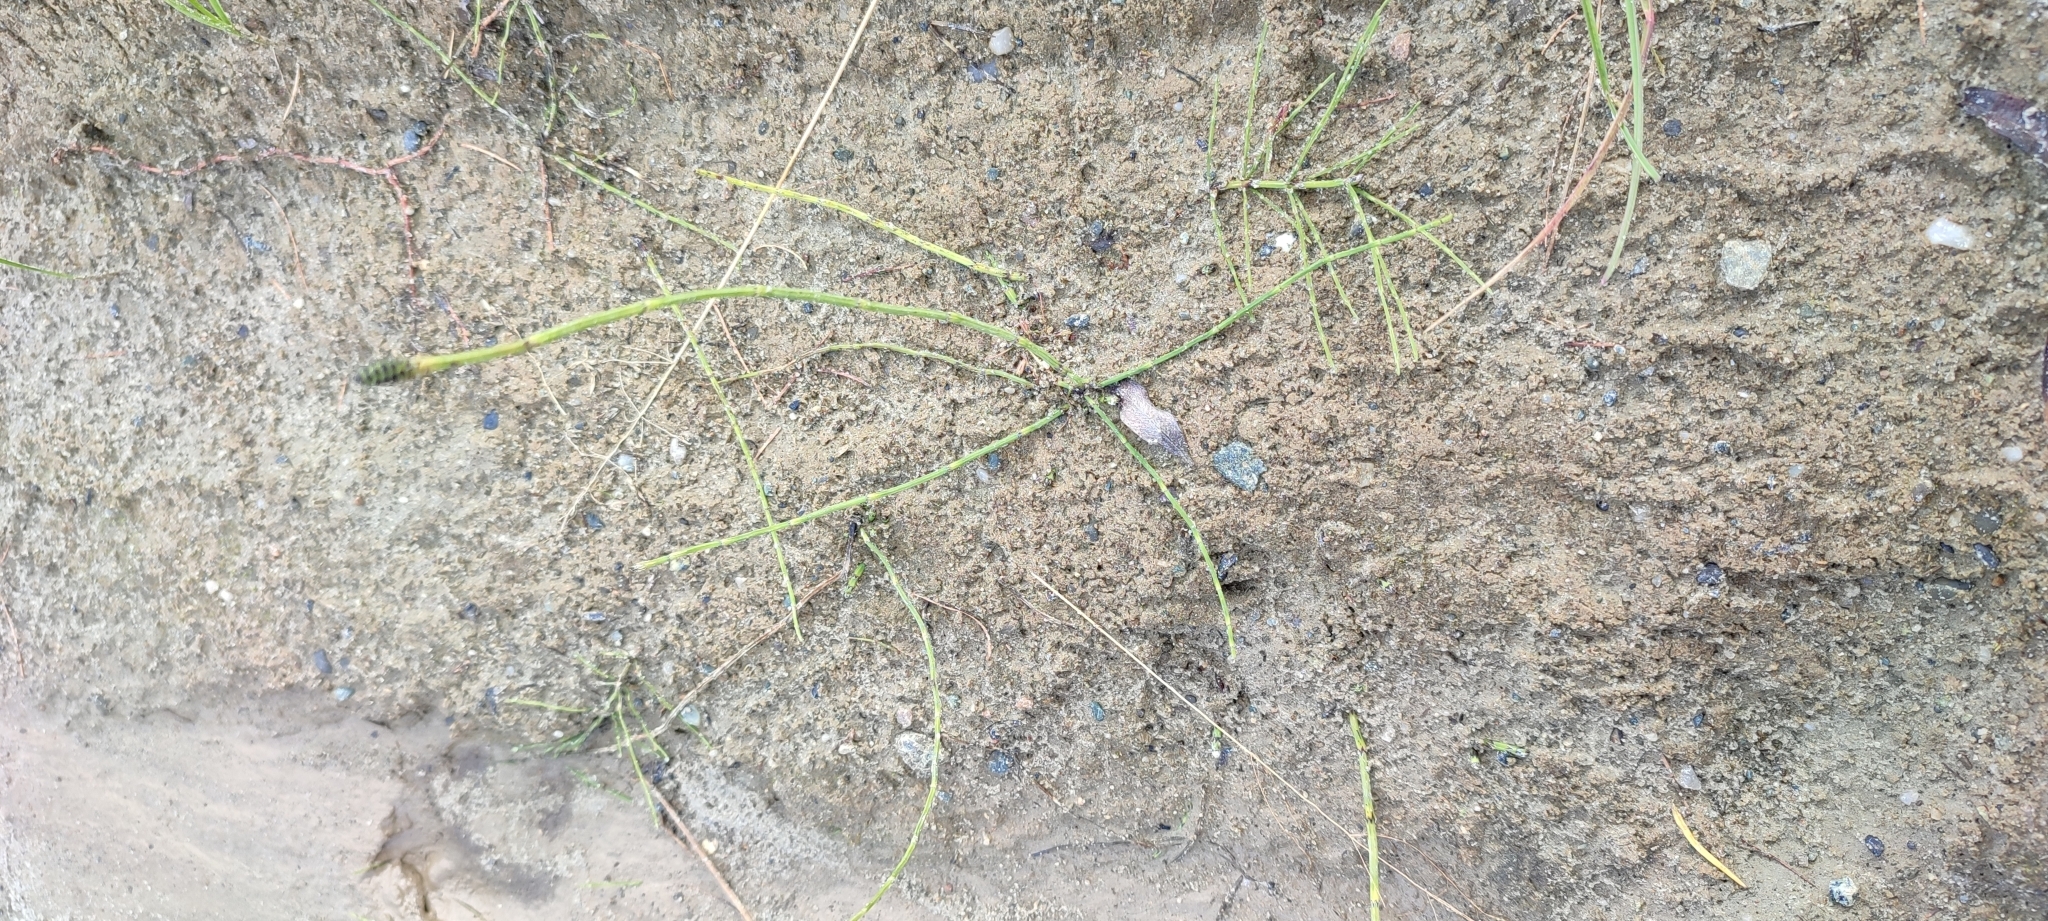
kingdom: Plantae
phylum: Tracheophyta
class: Polypodiopsida
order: Equisetales
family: Equisetaceae
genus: Equisetum
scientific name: Equisetum palustre
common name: Marsh horsetail
